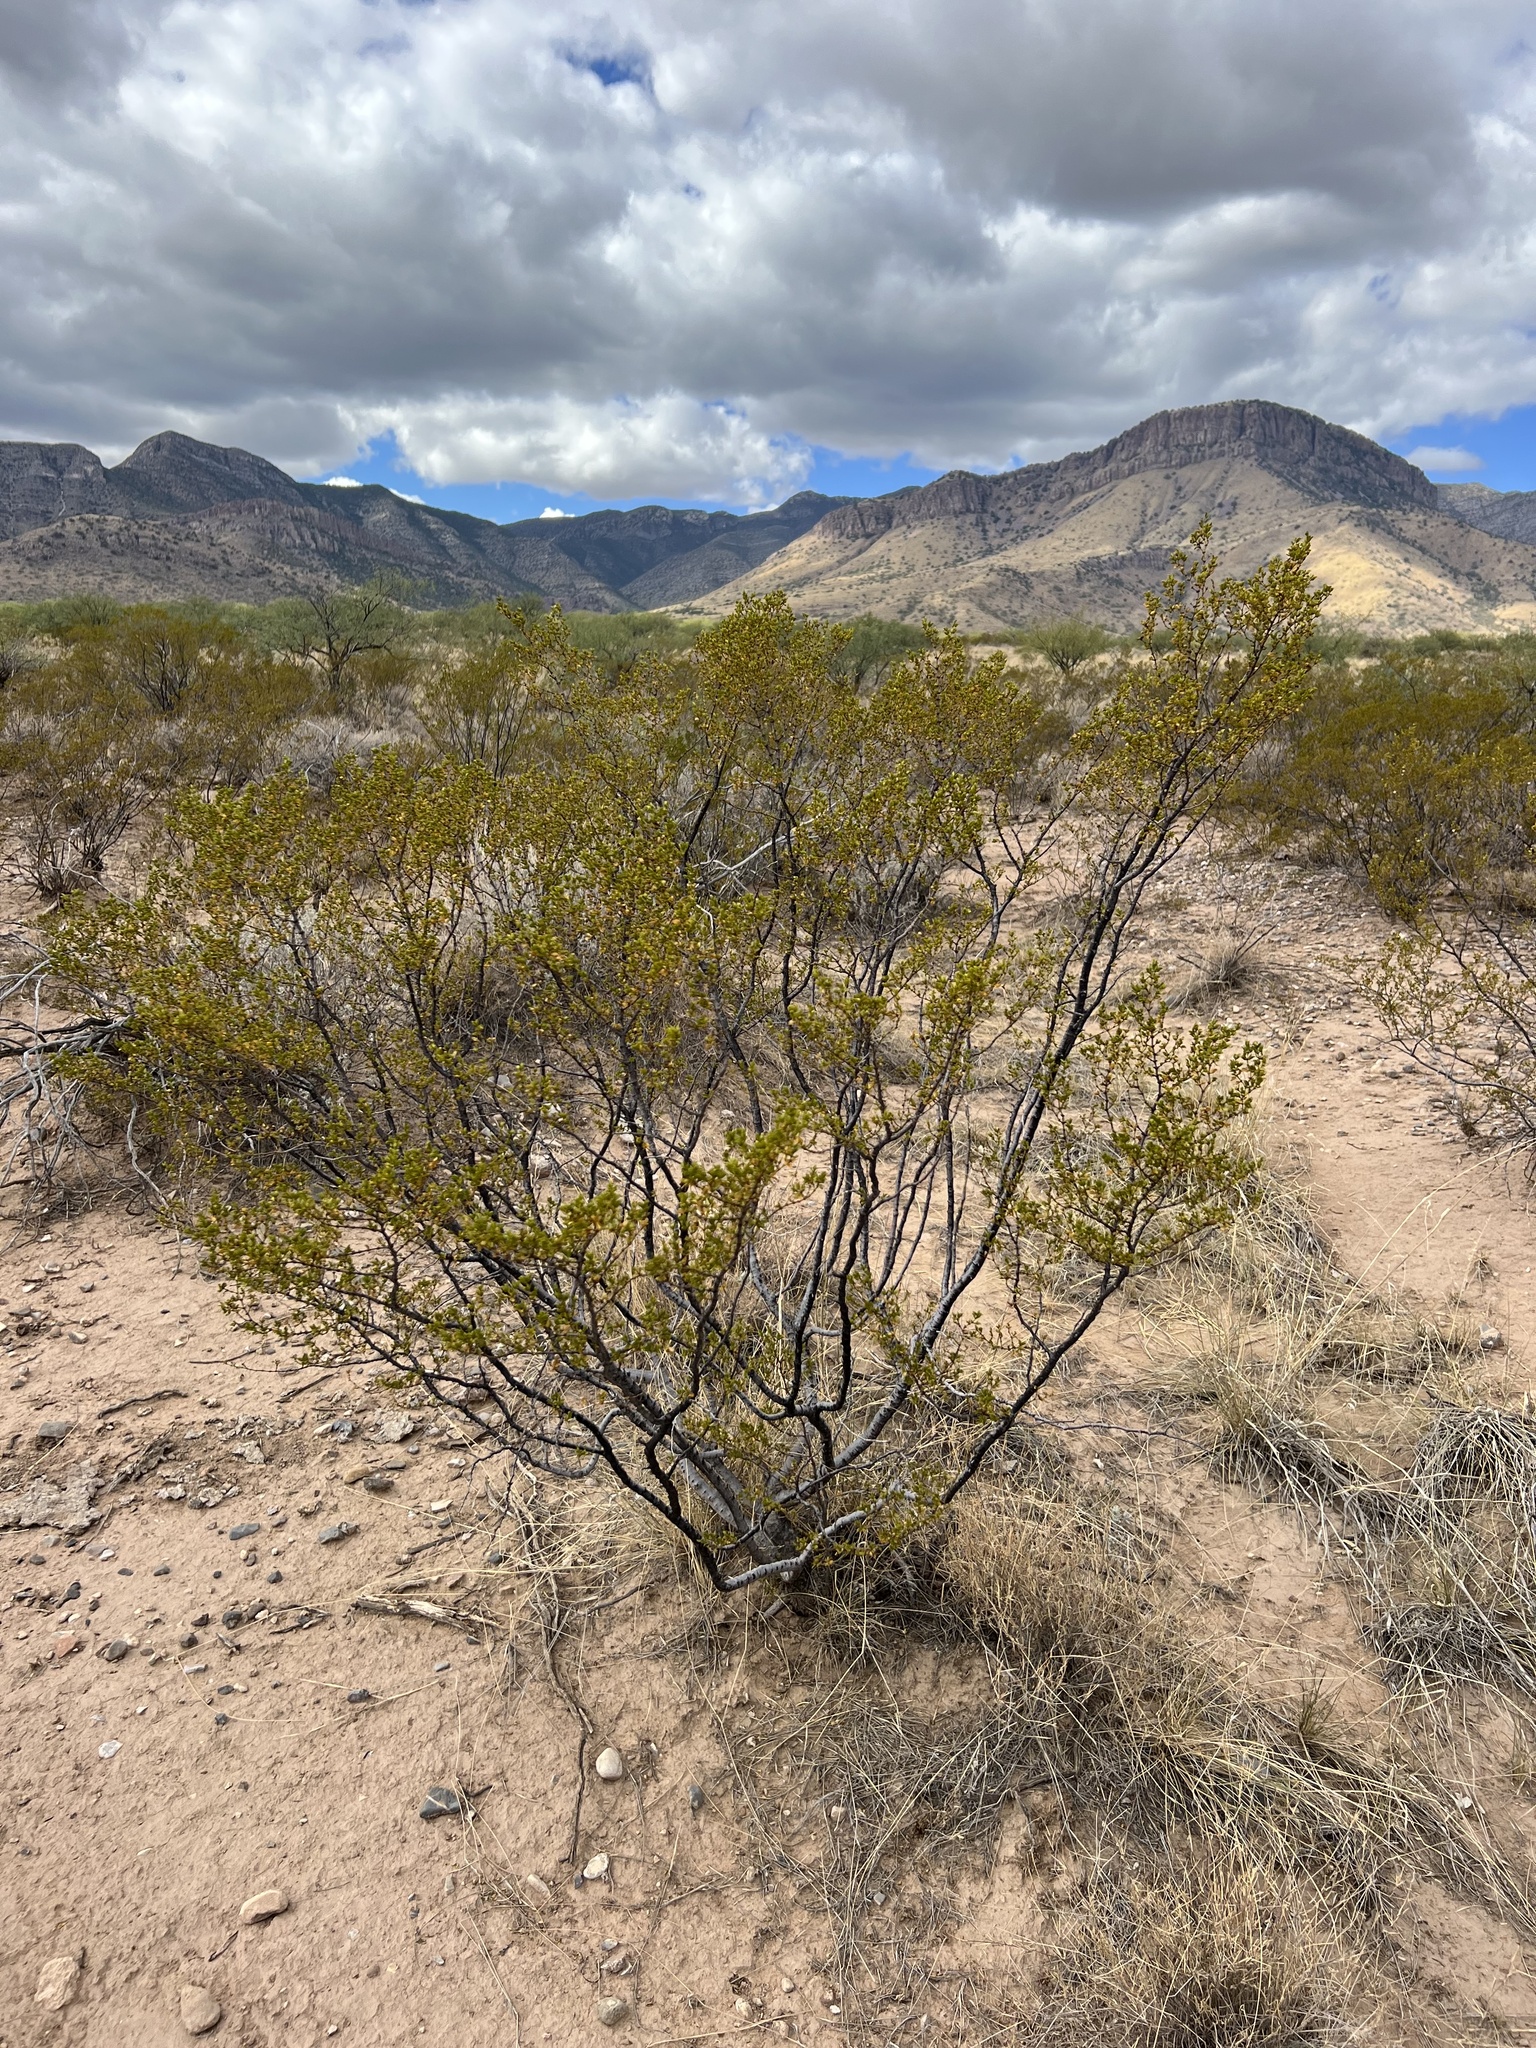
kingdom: Plantae
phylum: Tracheophyta
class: Magnoliopsida
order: Zygophyllales
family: Zygophyllaceae
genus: Larrea
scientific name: Larrea tridentata
